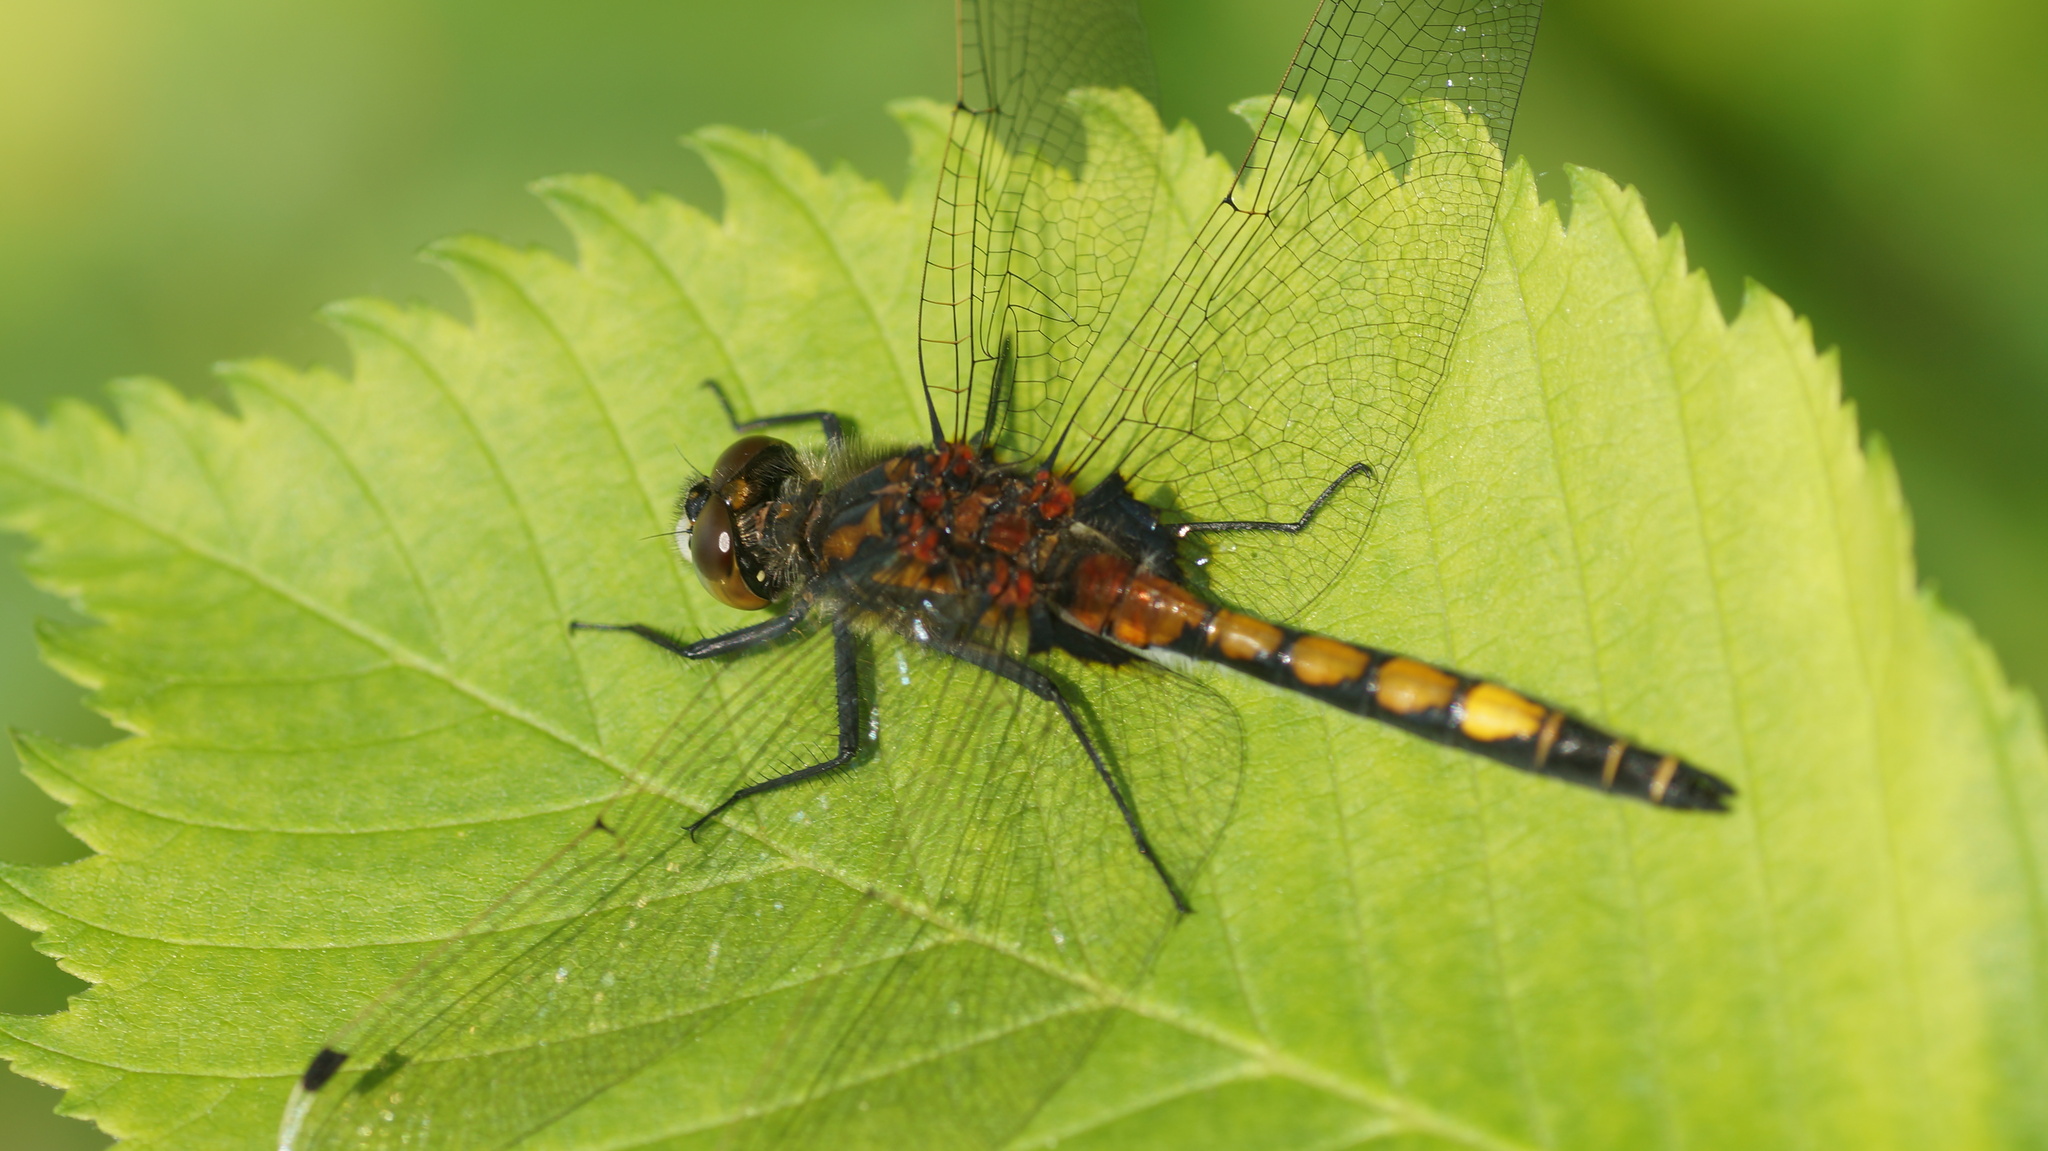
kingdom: Animalia
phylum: Arthropoda
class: Insecta
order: Odonata
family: Libellulidae
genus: Leucorrhinia
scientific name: Leucorrhinia pectoralis
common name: Yellow-spotted whiteface
